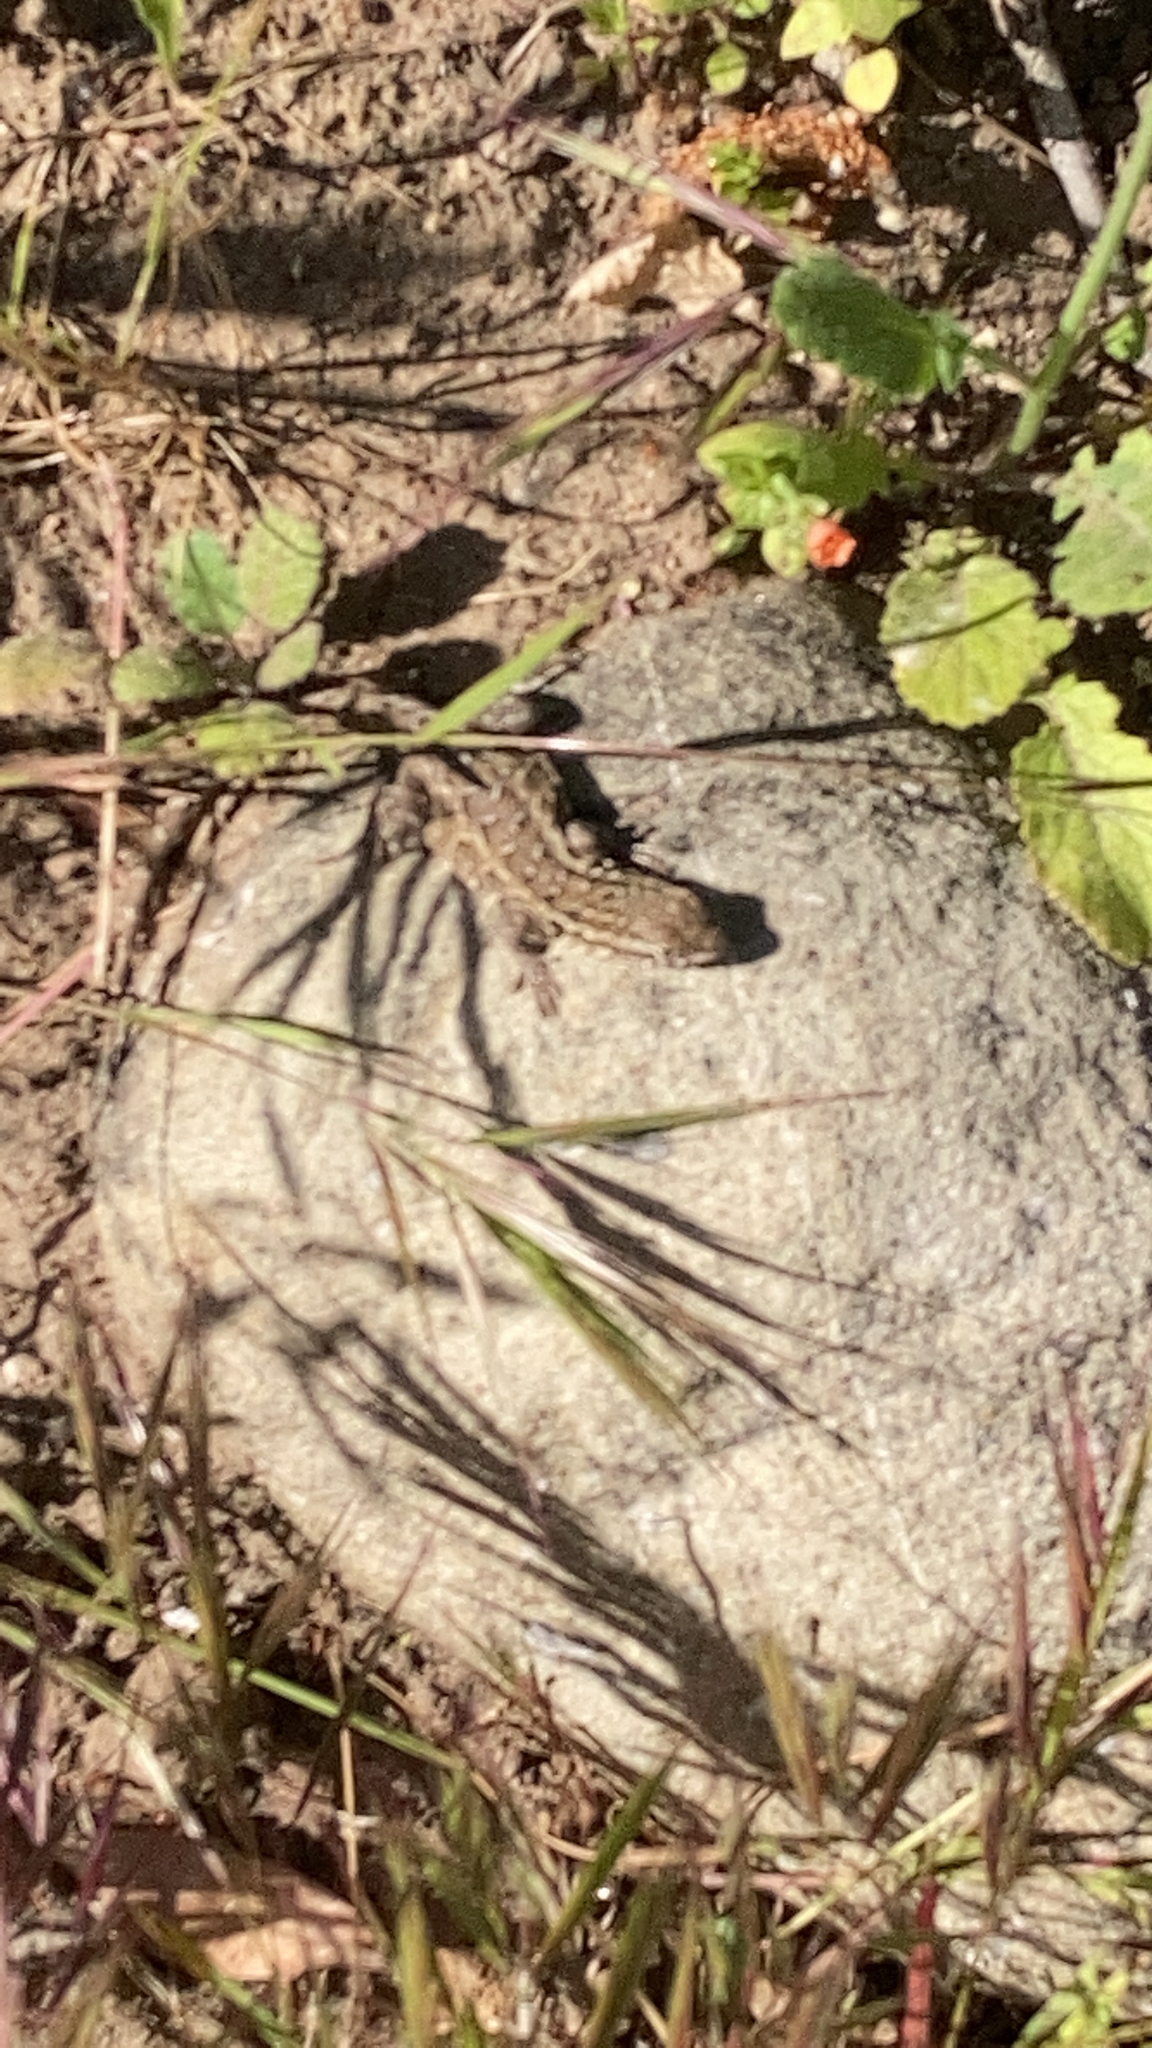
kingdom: Animalia
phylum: Chordata
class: Squamata
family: Phrynosomatidae
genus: Uta
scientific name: Uta stansburiana
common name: Side-blotched lizard
